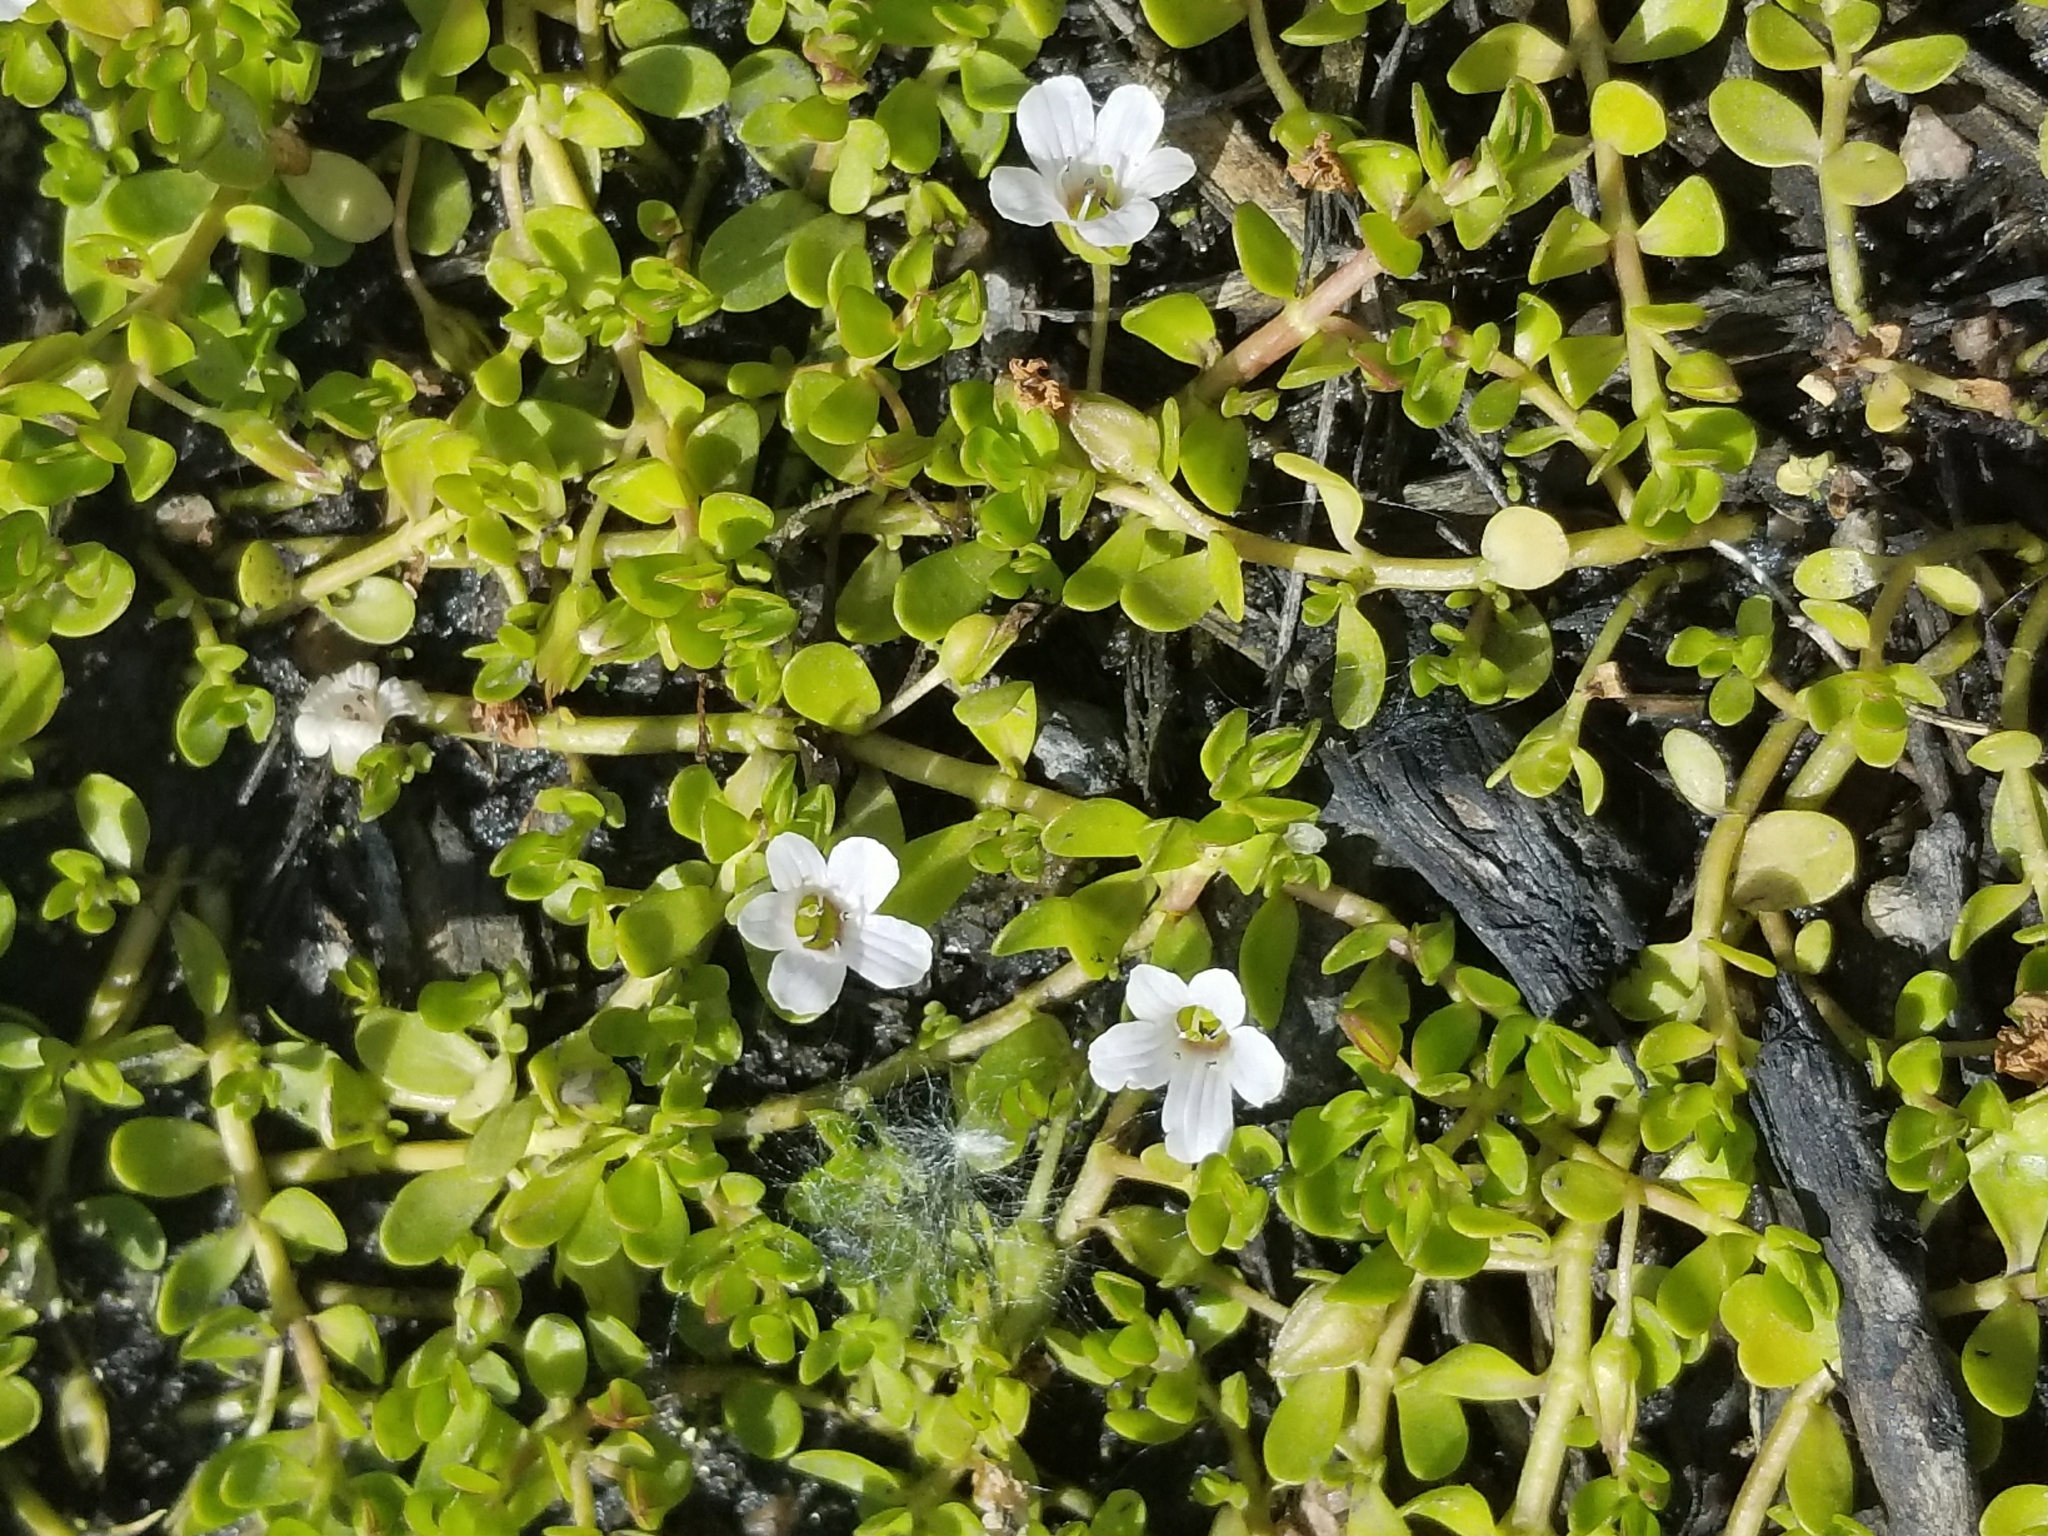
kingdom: Plantae
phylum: Tracheophyta
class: Magnoliopsida
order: Lamiales
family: Plantaginaceae
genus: Bacopa
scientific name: Bacopa monnieri
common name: Indian-pennywort
